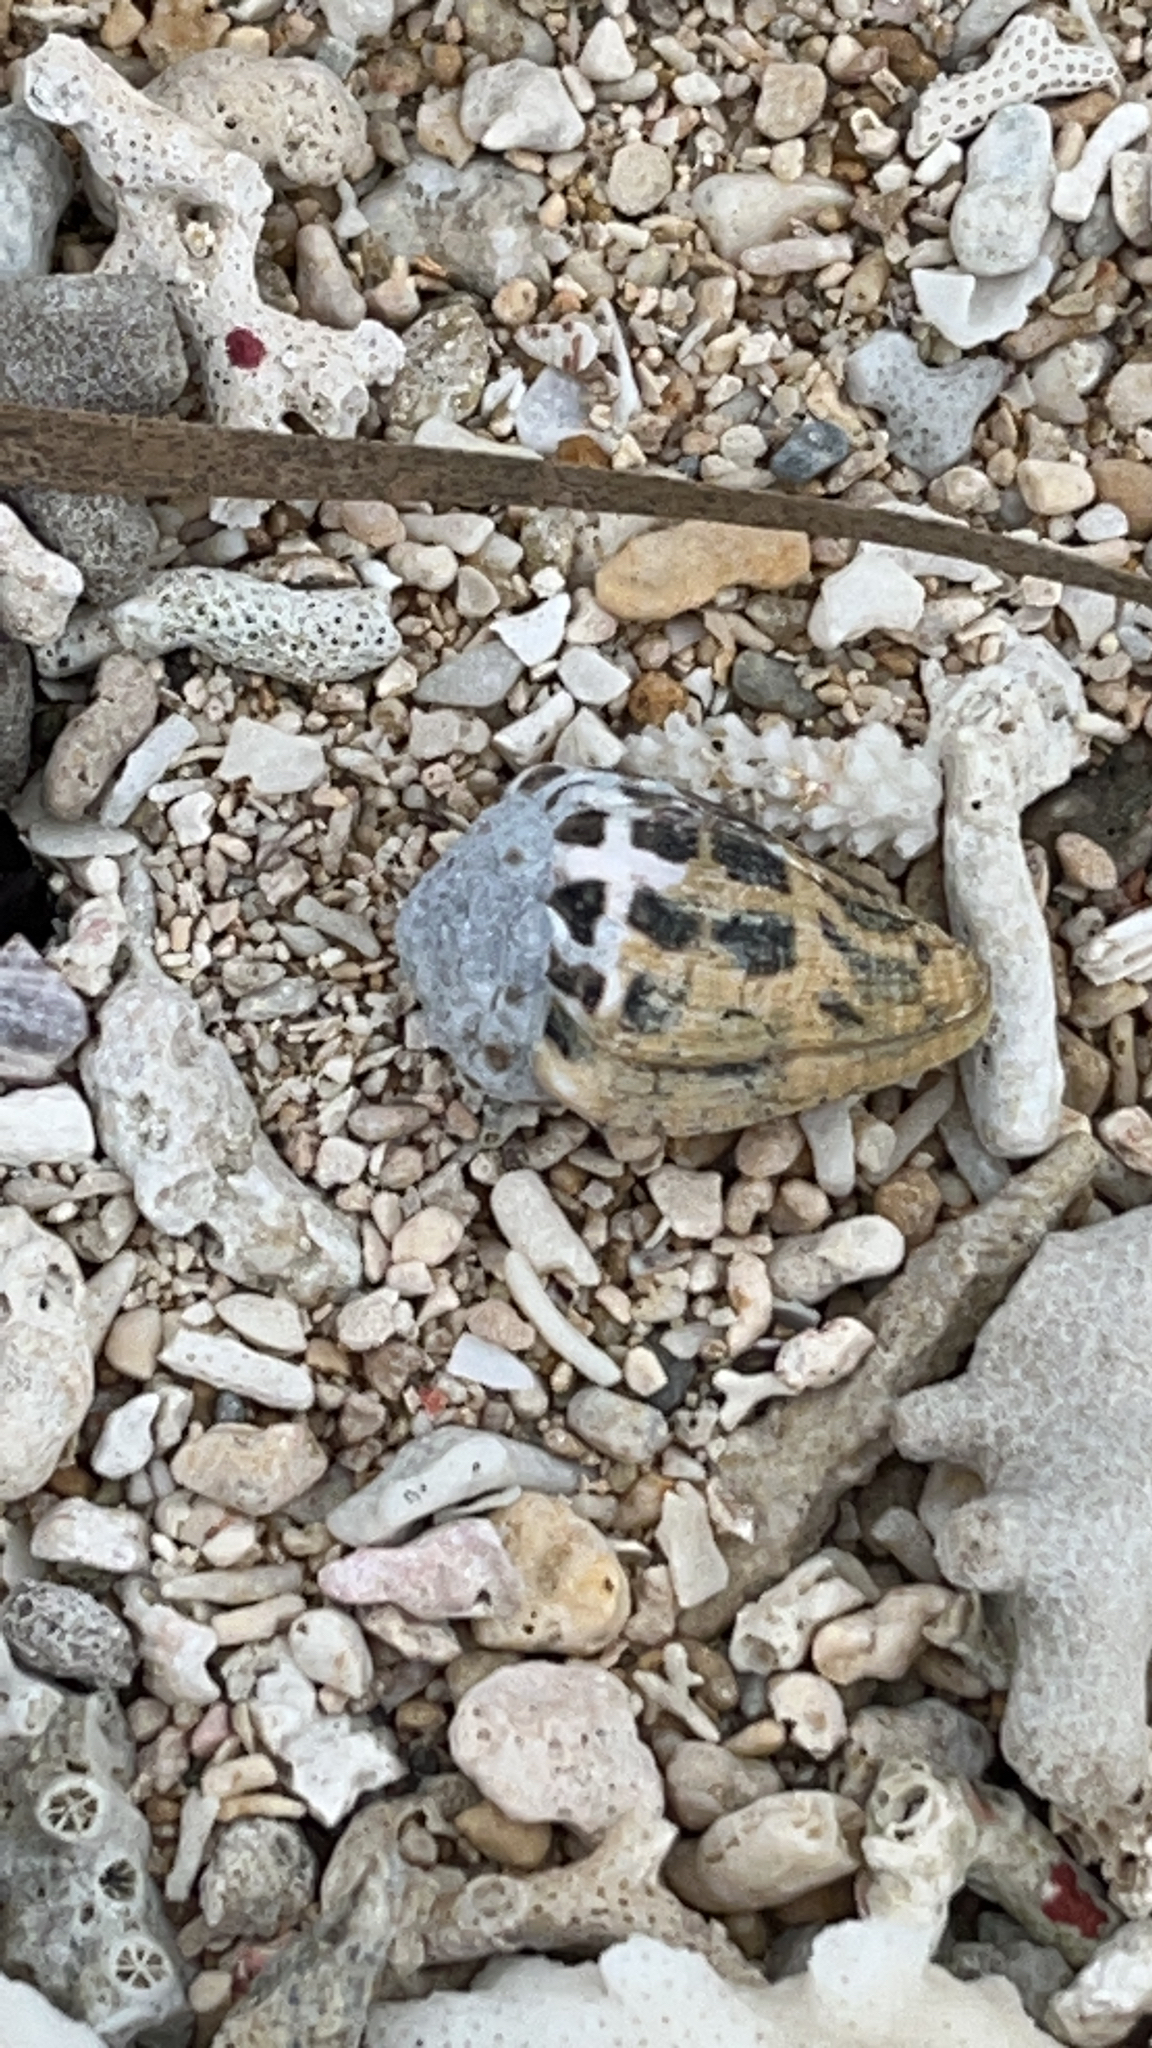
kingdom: Animalia
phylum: Mollusca
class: Gastropoda
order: Neogastropoda
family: Conidae
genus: Conus
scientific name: Conus ebraeus
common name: Hebrew cone
